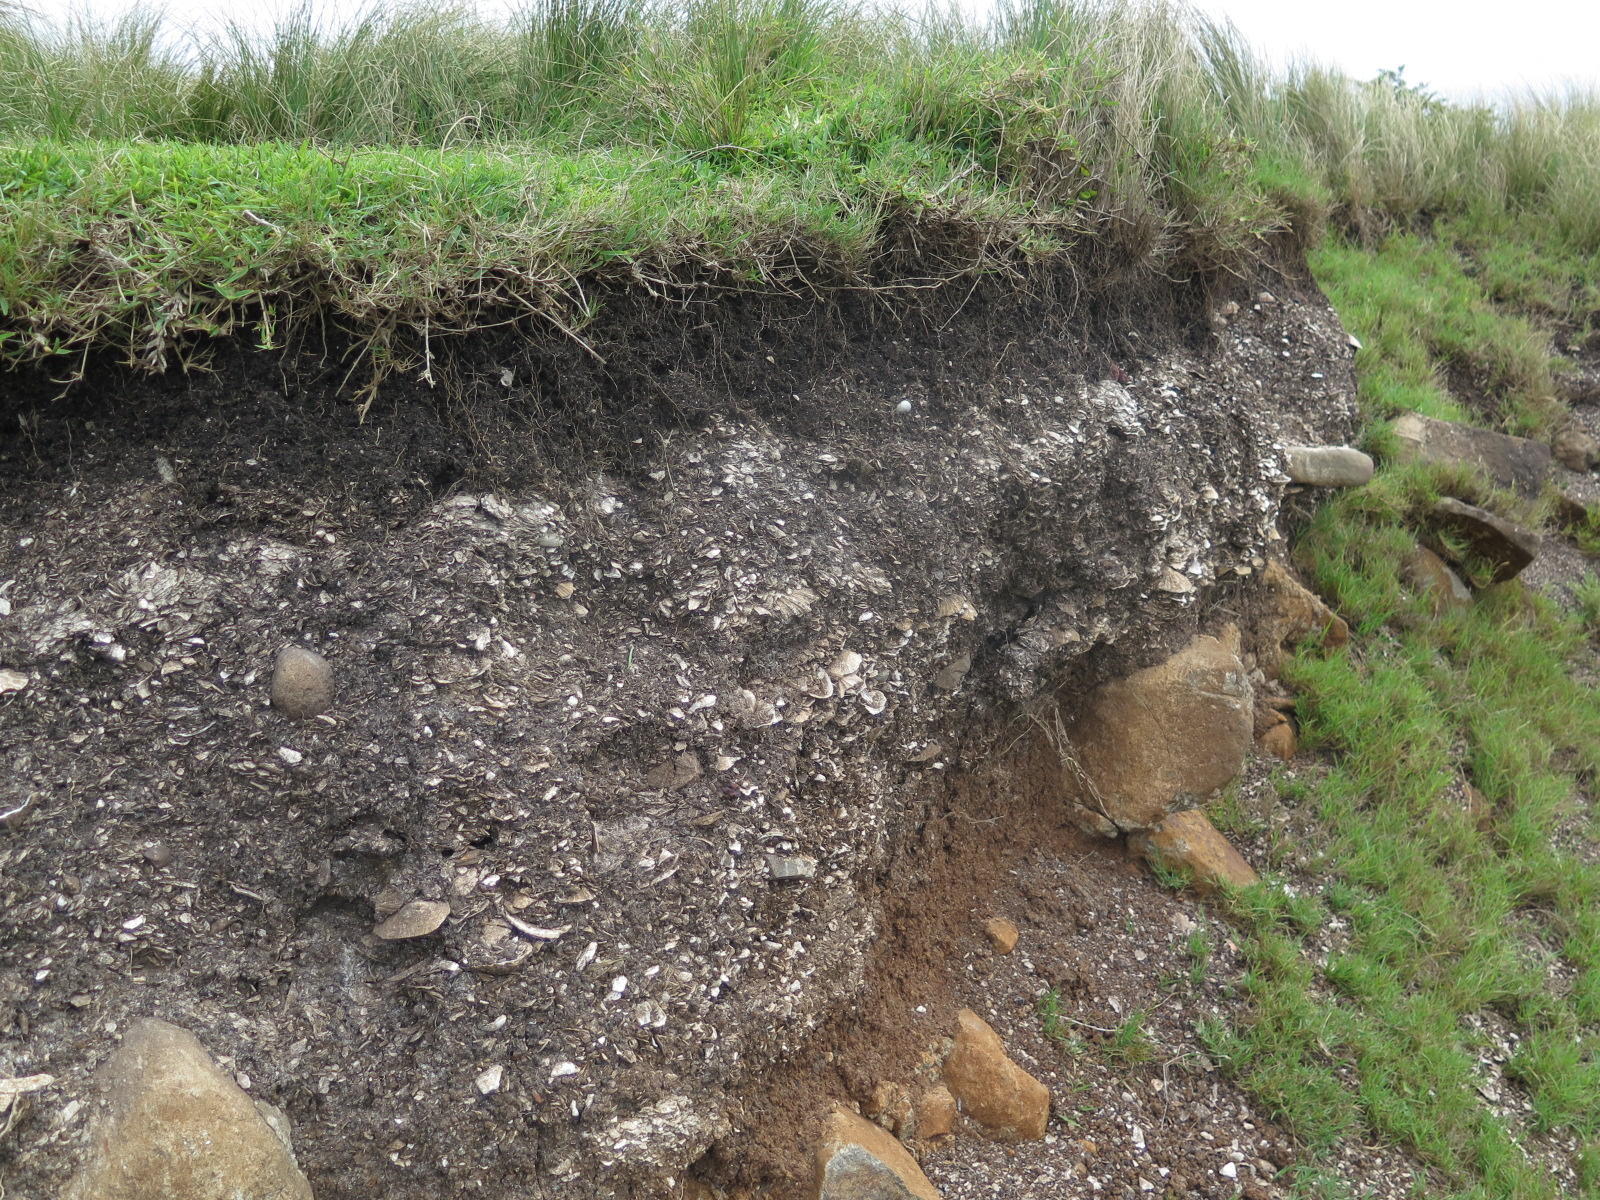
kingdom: Plantae
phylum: Tracheophyta
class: Liliopsida
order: Poales
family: Poaceae
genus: Stenotaphrum
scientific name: Stenotaphrum secundatum
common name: St. augustine grass
